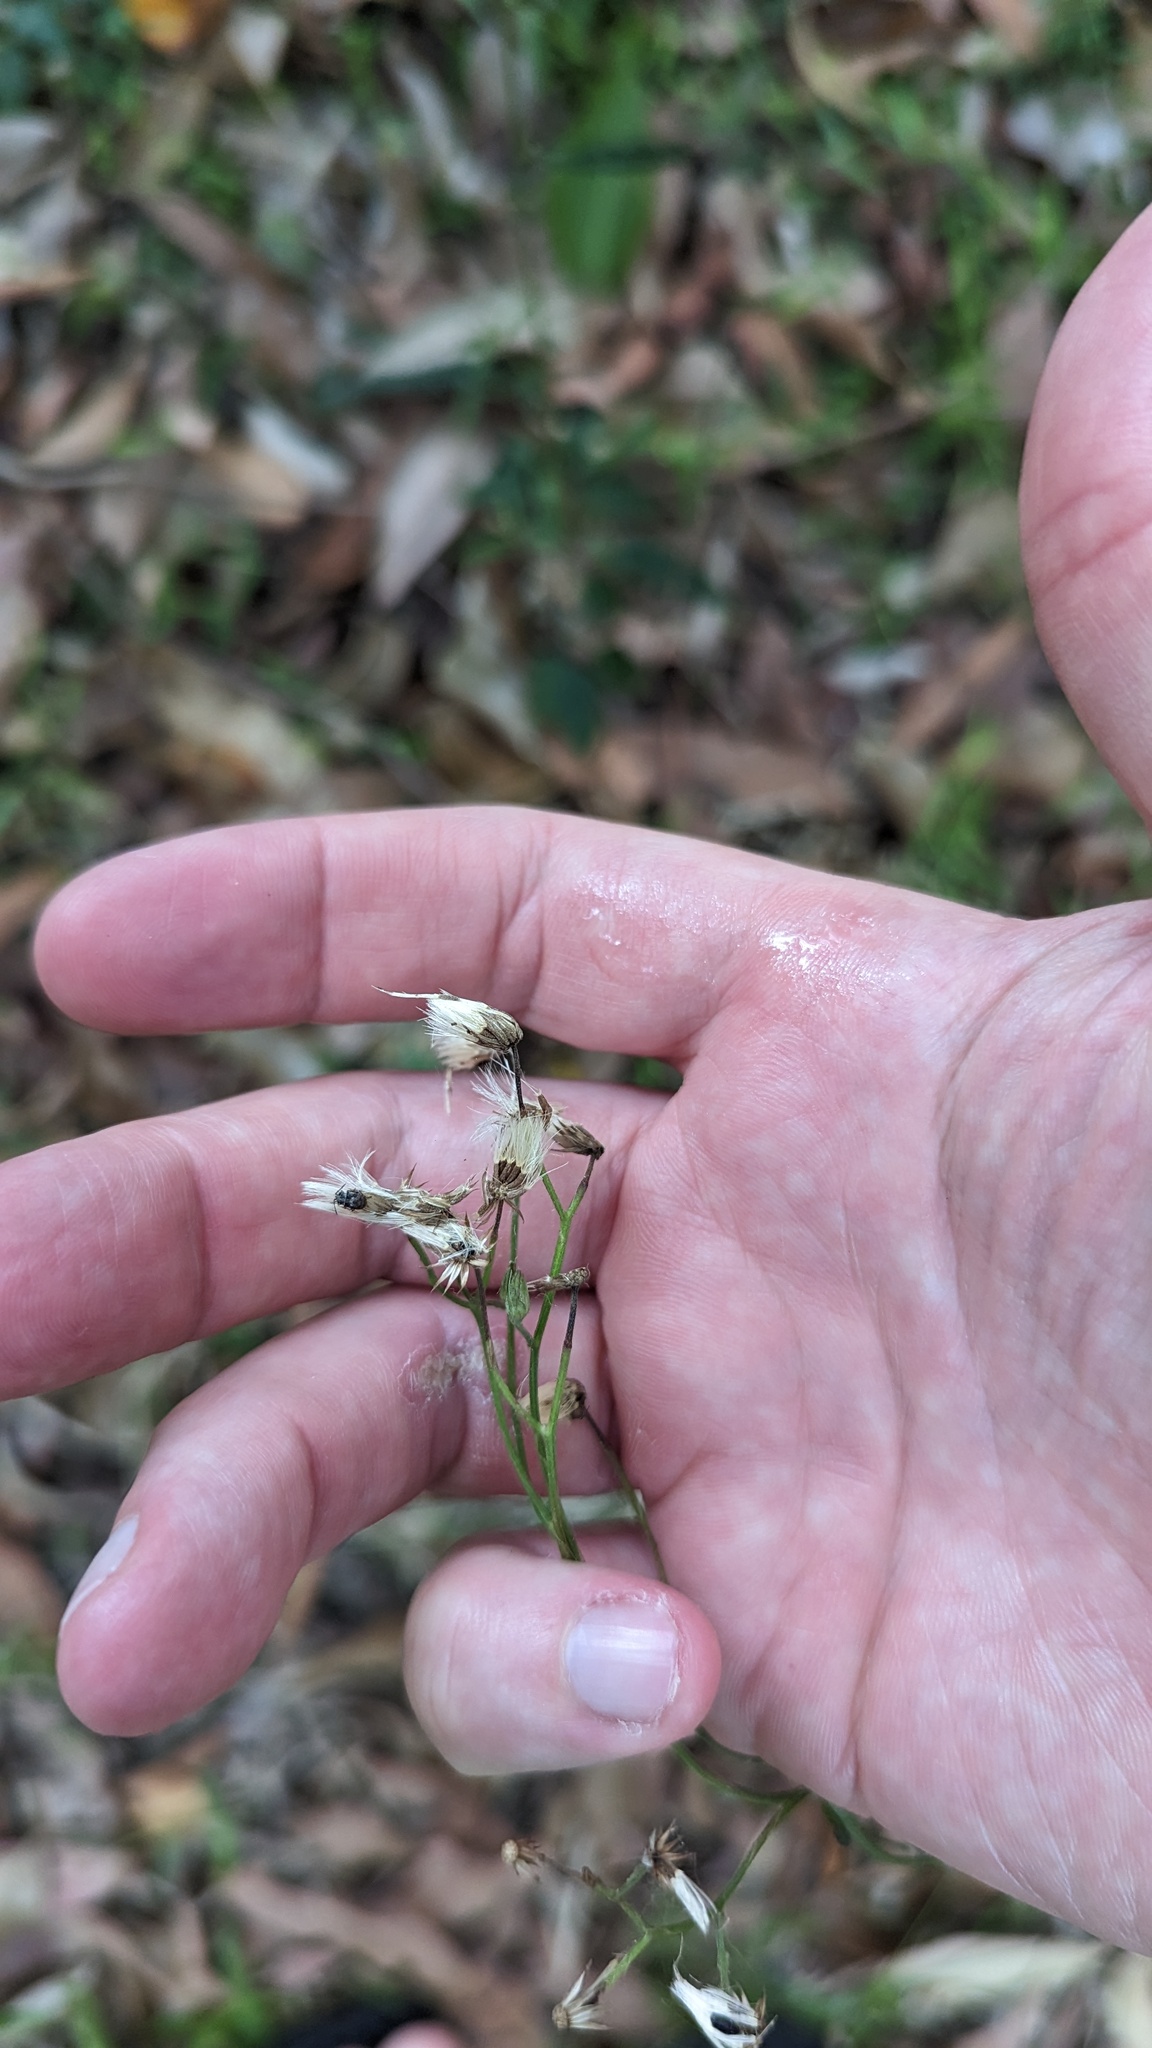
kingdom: Plantae
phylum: Tracheophyta
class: Magnoliopsida
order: Asterales
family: Asteraceae
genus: Cyanthillium
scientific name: Cyanthillium cinereum
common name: Little ironweed
